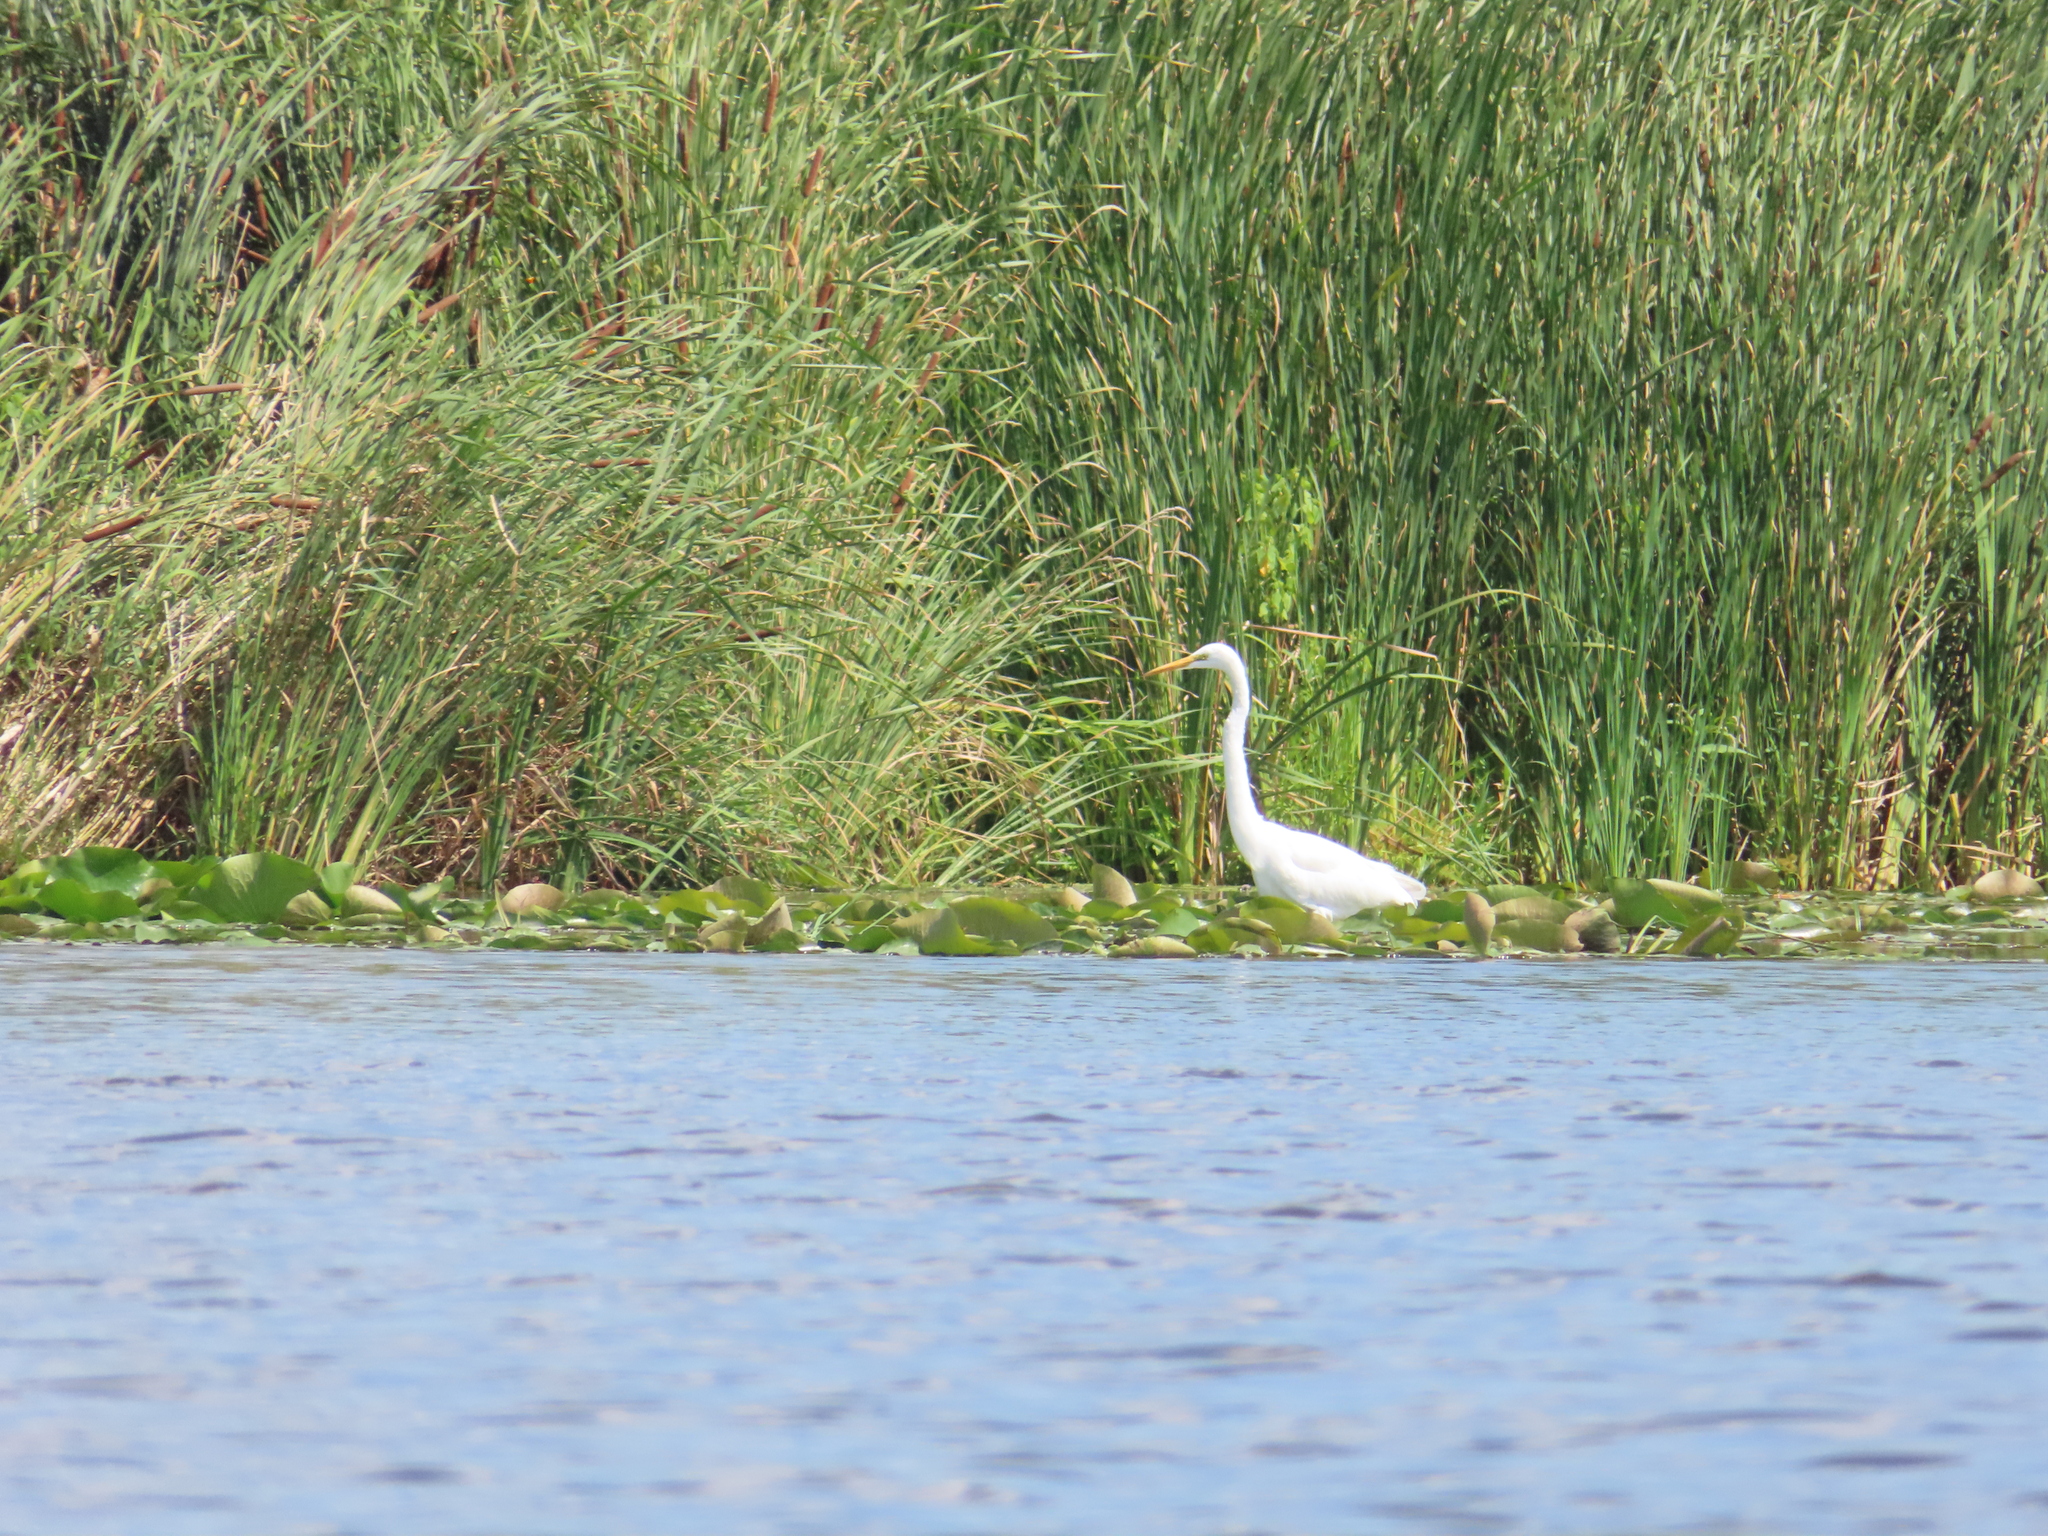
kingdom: Animalia
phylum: Chordata
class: Aves
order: Pelecaniformes
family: Ardeidae
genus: Ardea
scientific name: Ardea alba
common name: Great egret
